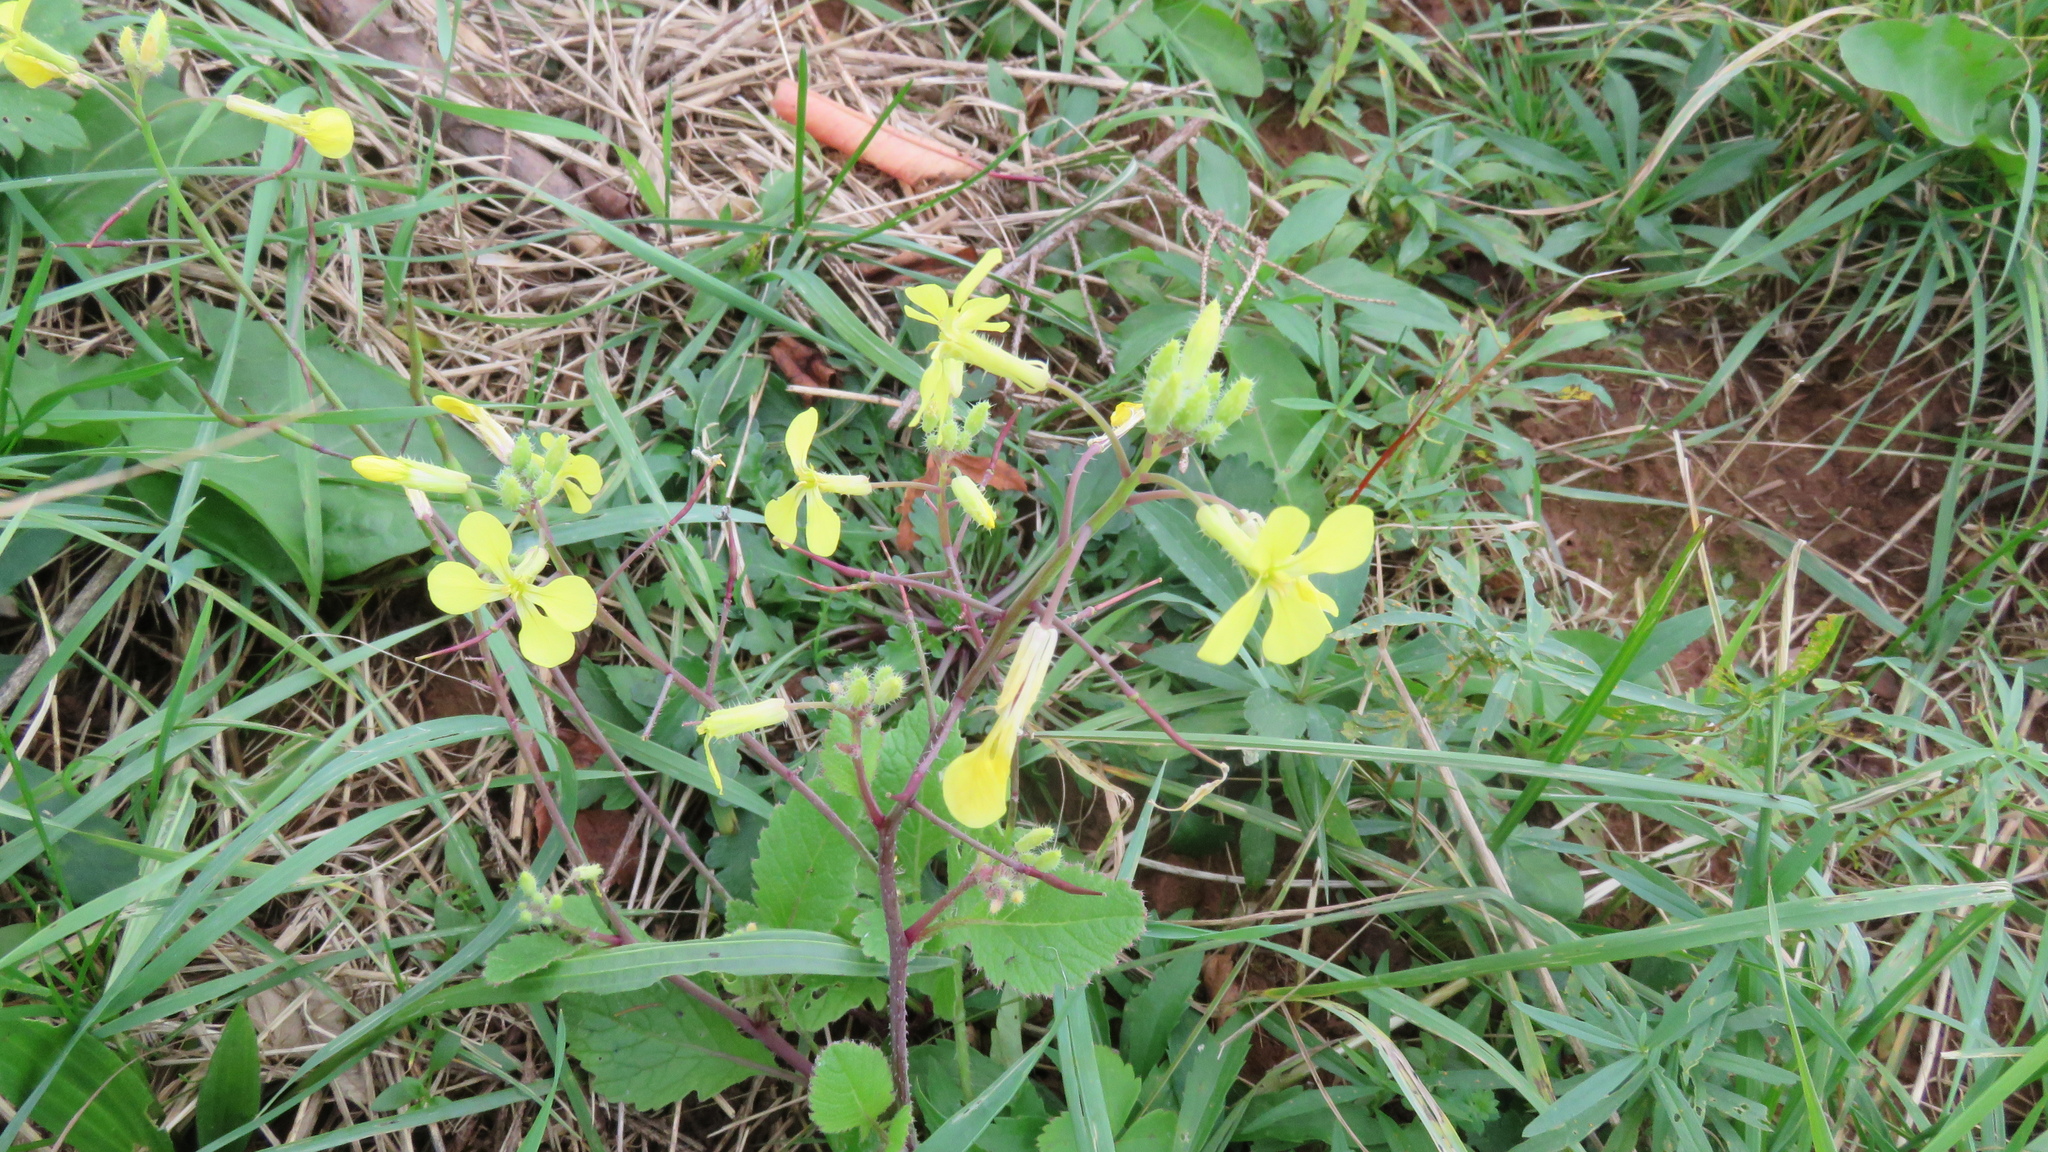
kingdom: Plantae
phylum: Tracheophyta
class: Magnoliopsida
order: Brassicales
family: Brassicaceae
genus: Raphanus
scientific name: Raphanus raphanistrum
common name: Wild radish
